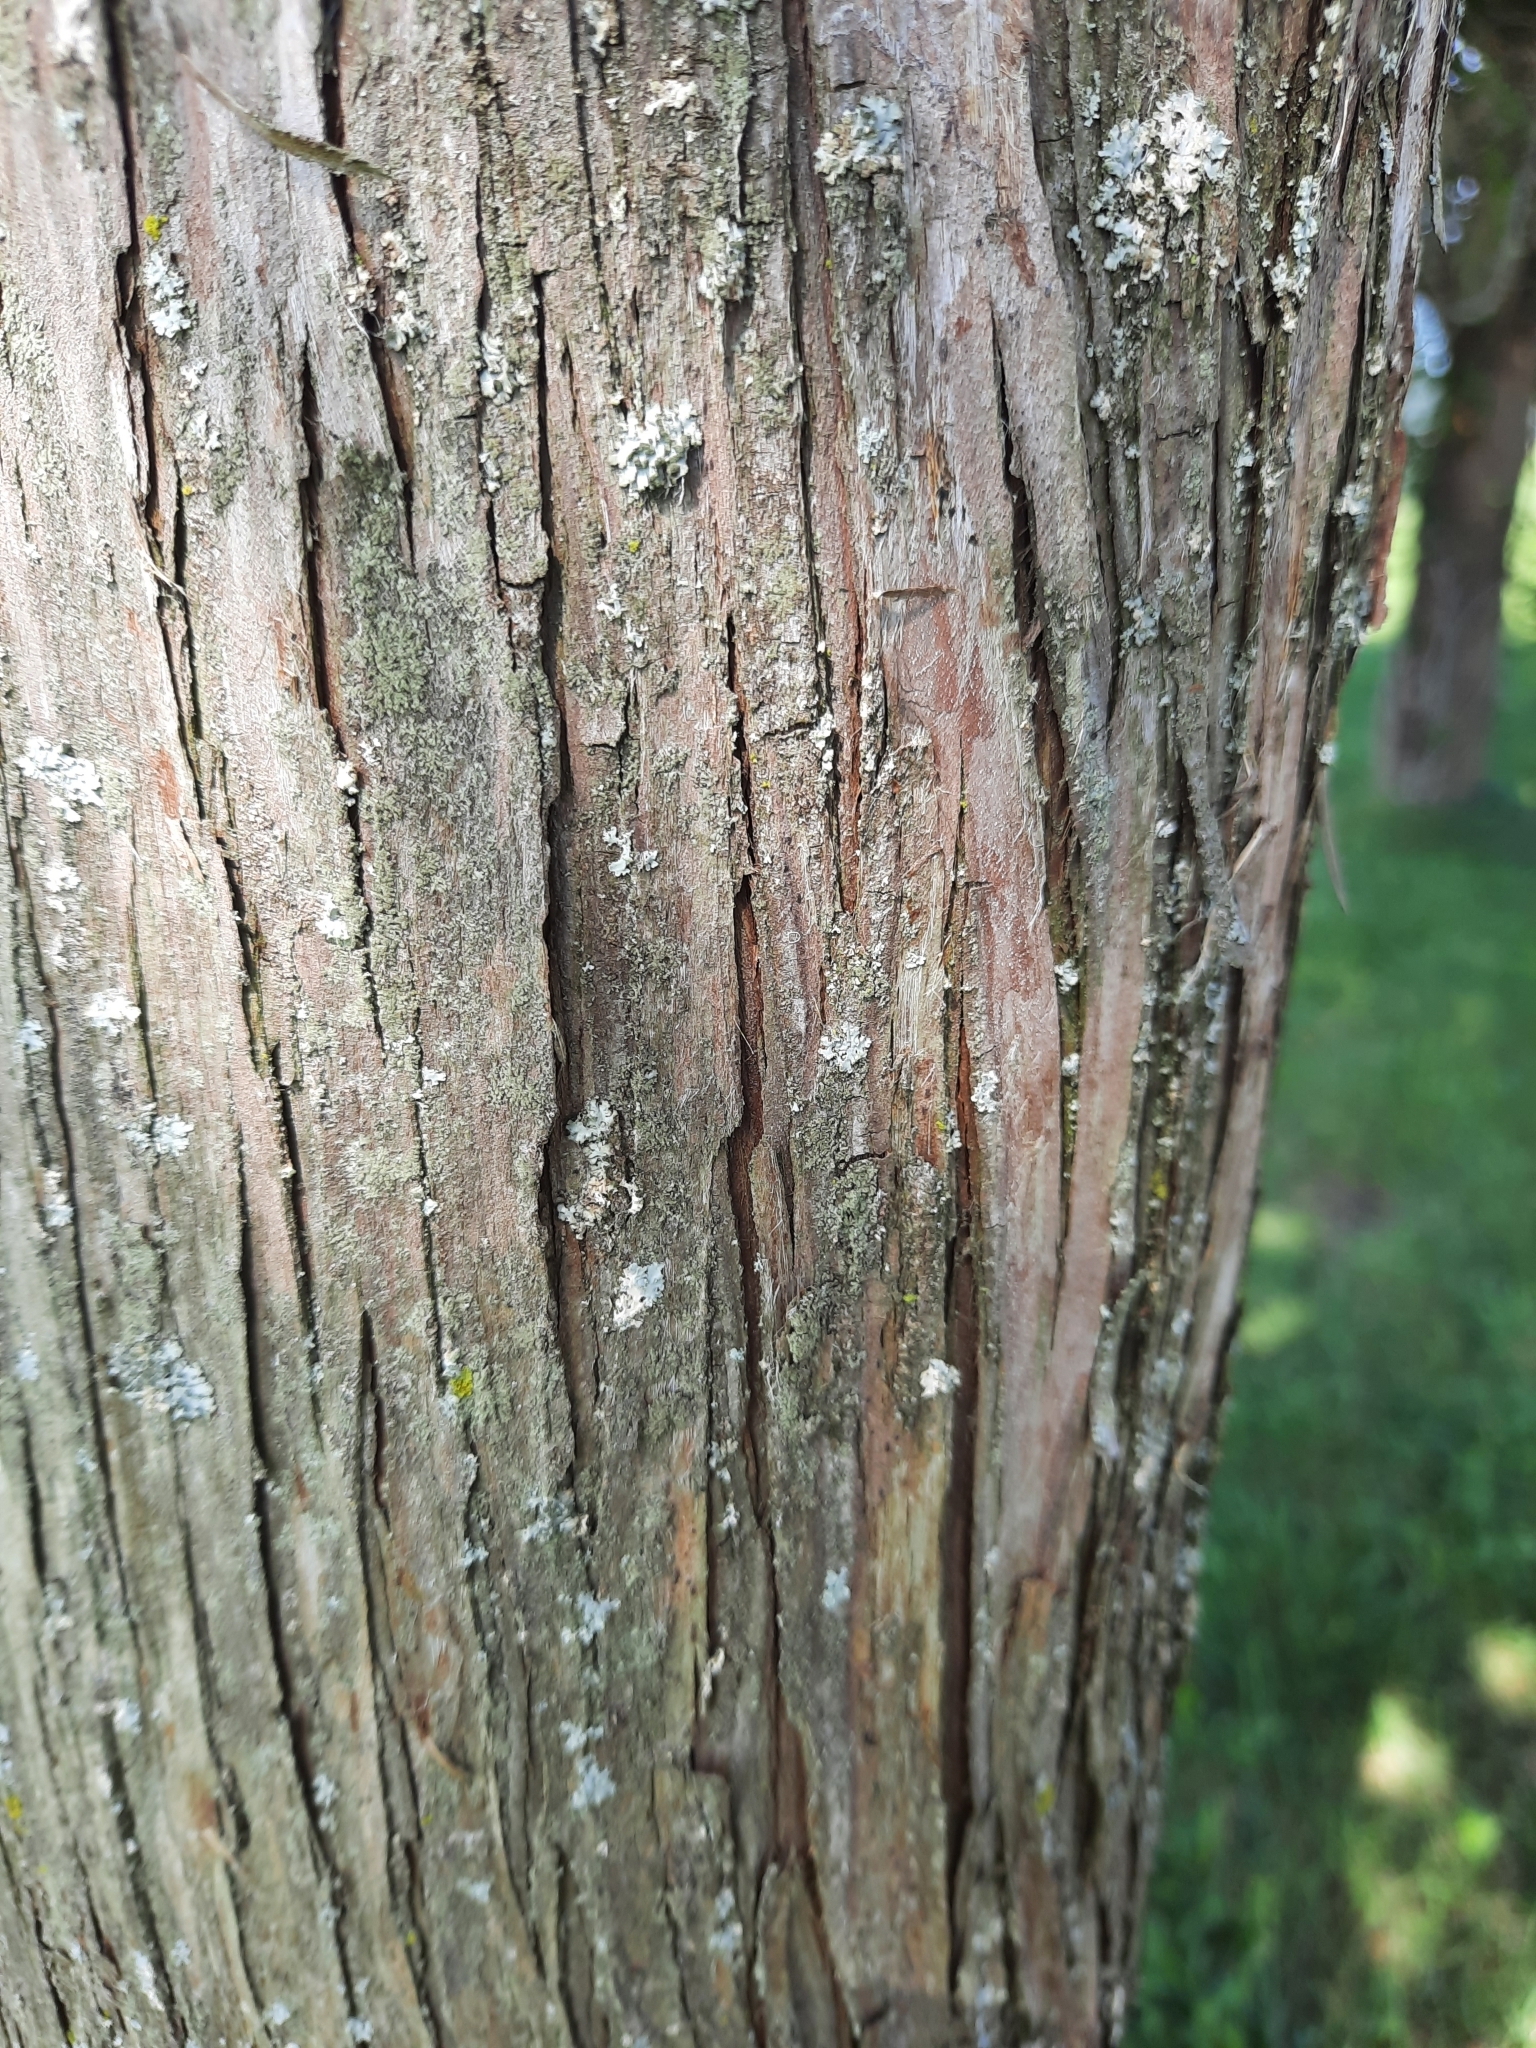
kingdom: Plantae
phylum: Tracheophyta
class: Pinopsida
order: Pinales
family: Cupressaceae
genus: Juniperus
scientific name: Juniperus virginiana
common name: Red juniper
